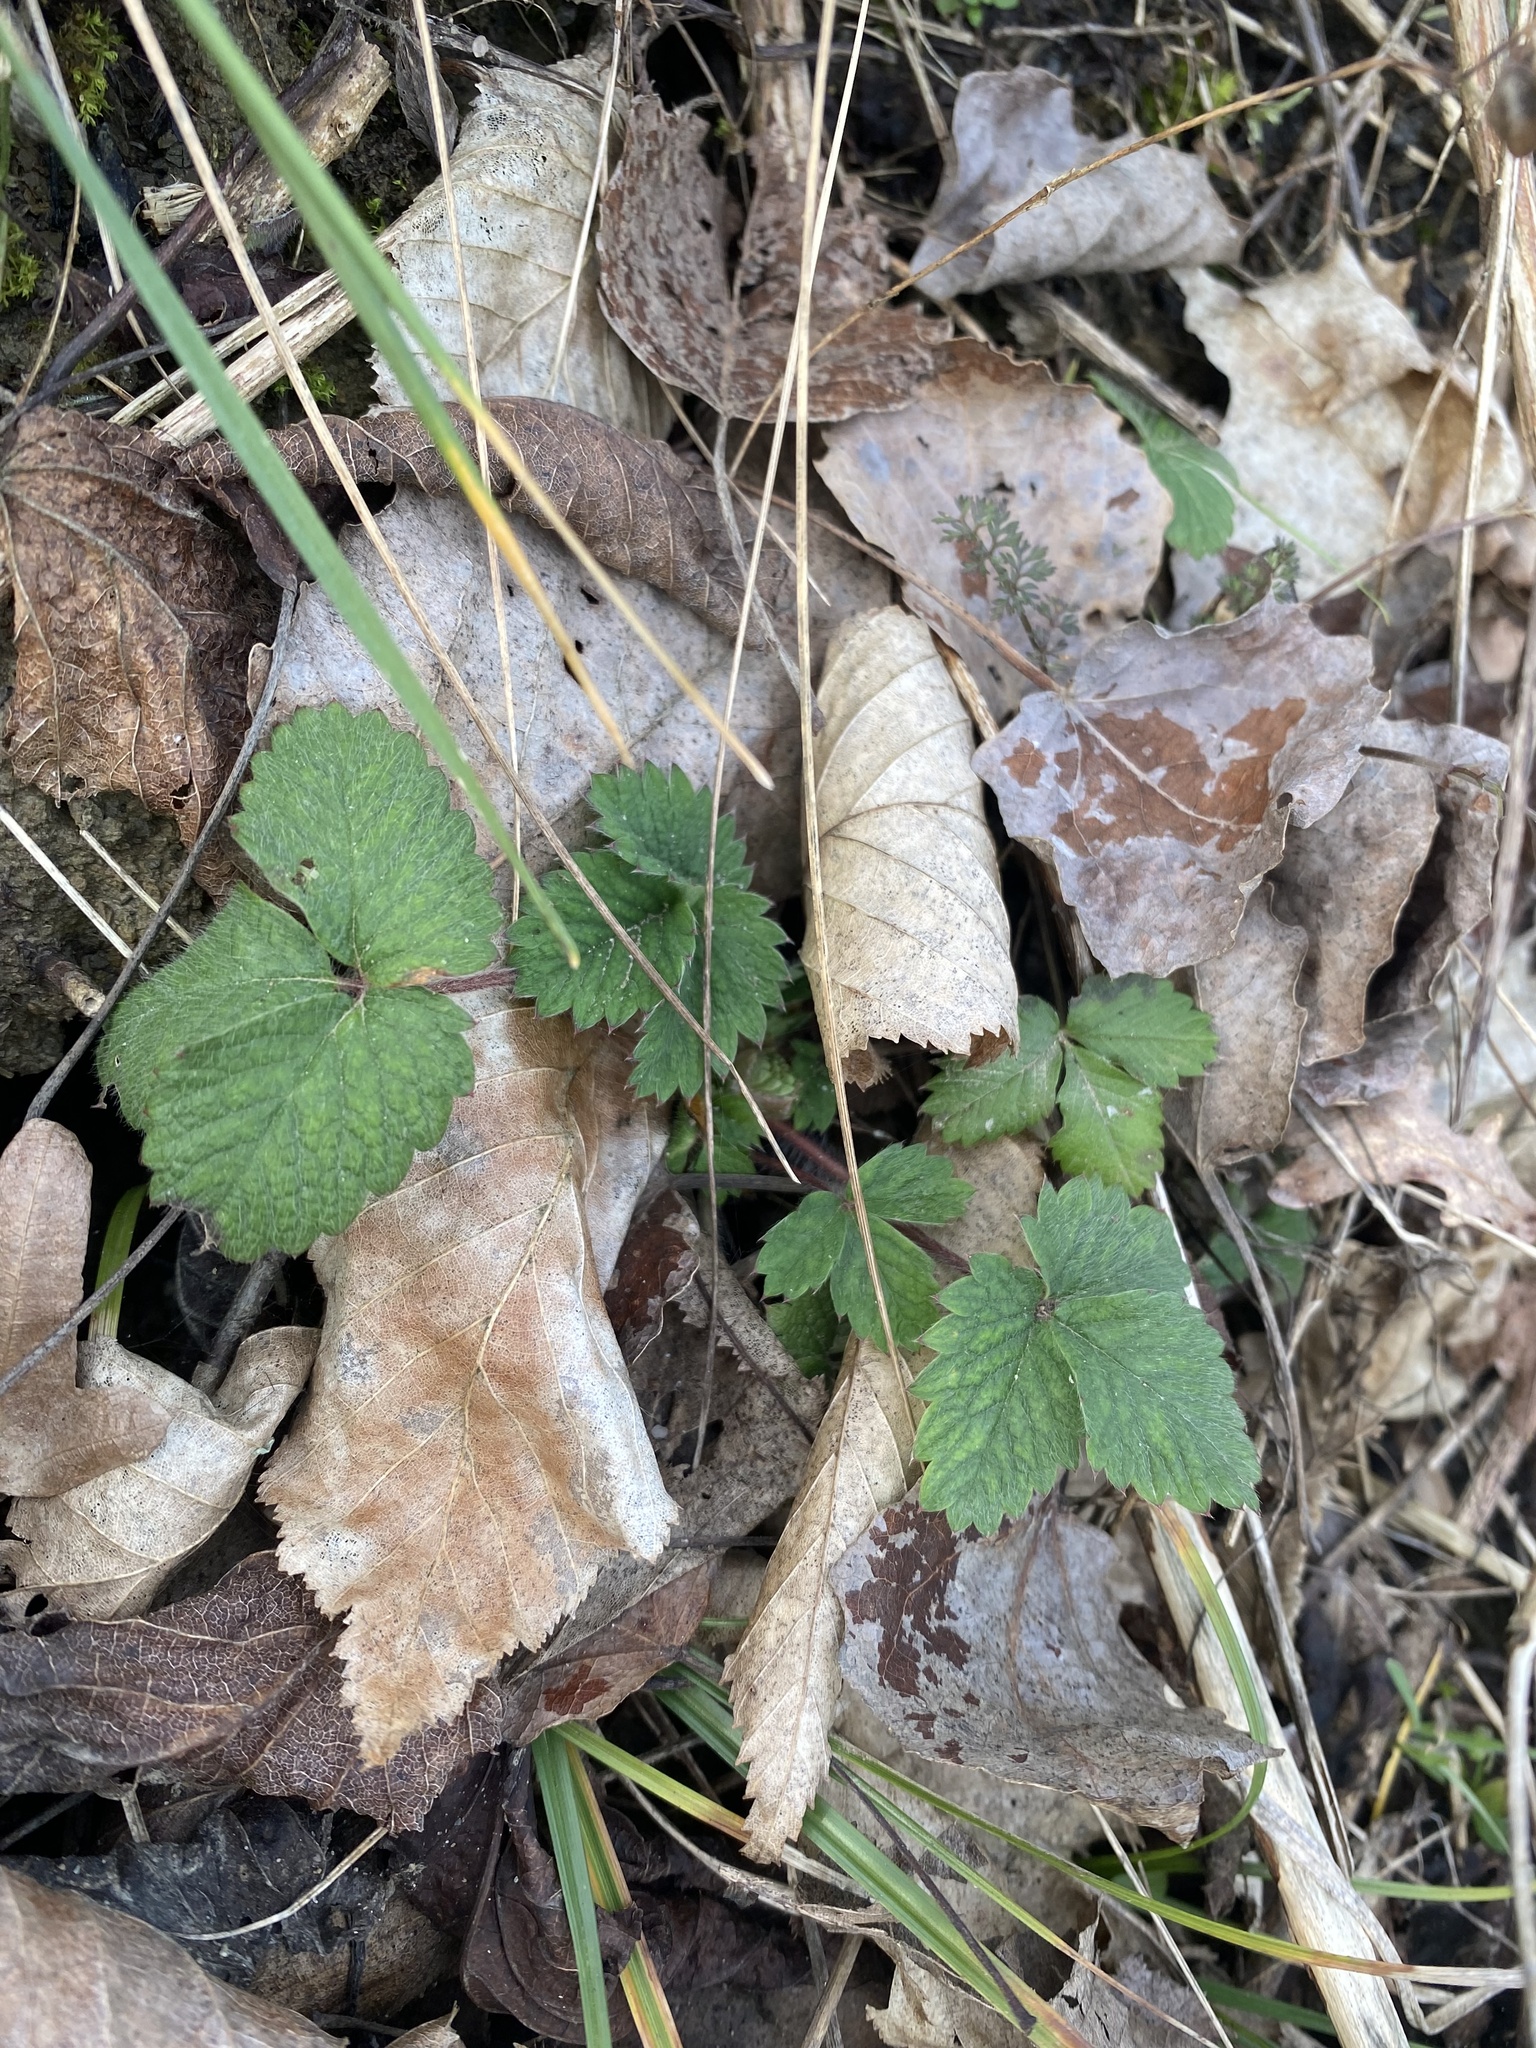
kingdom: Plantae
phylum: Tracheophyta
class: Magnoliopsida
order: Rosales
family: Rosaceae
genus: Potentilla
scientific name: Potentilla micrantha
